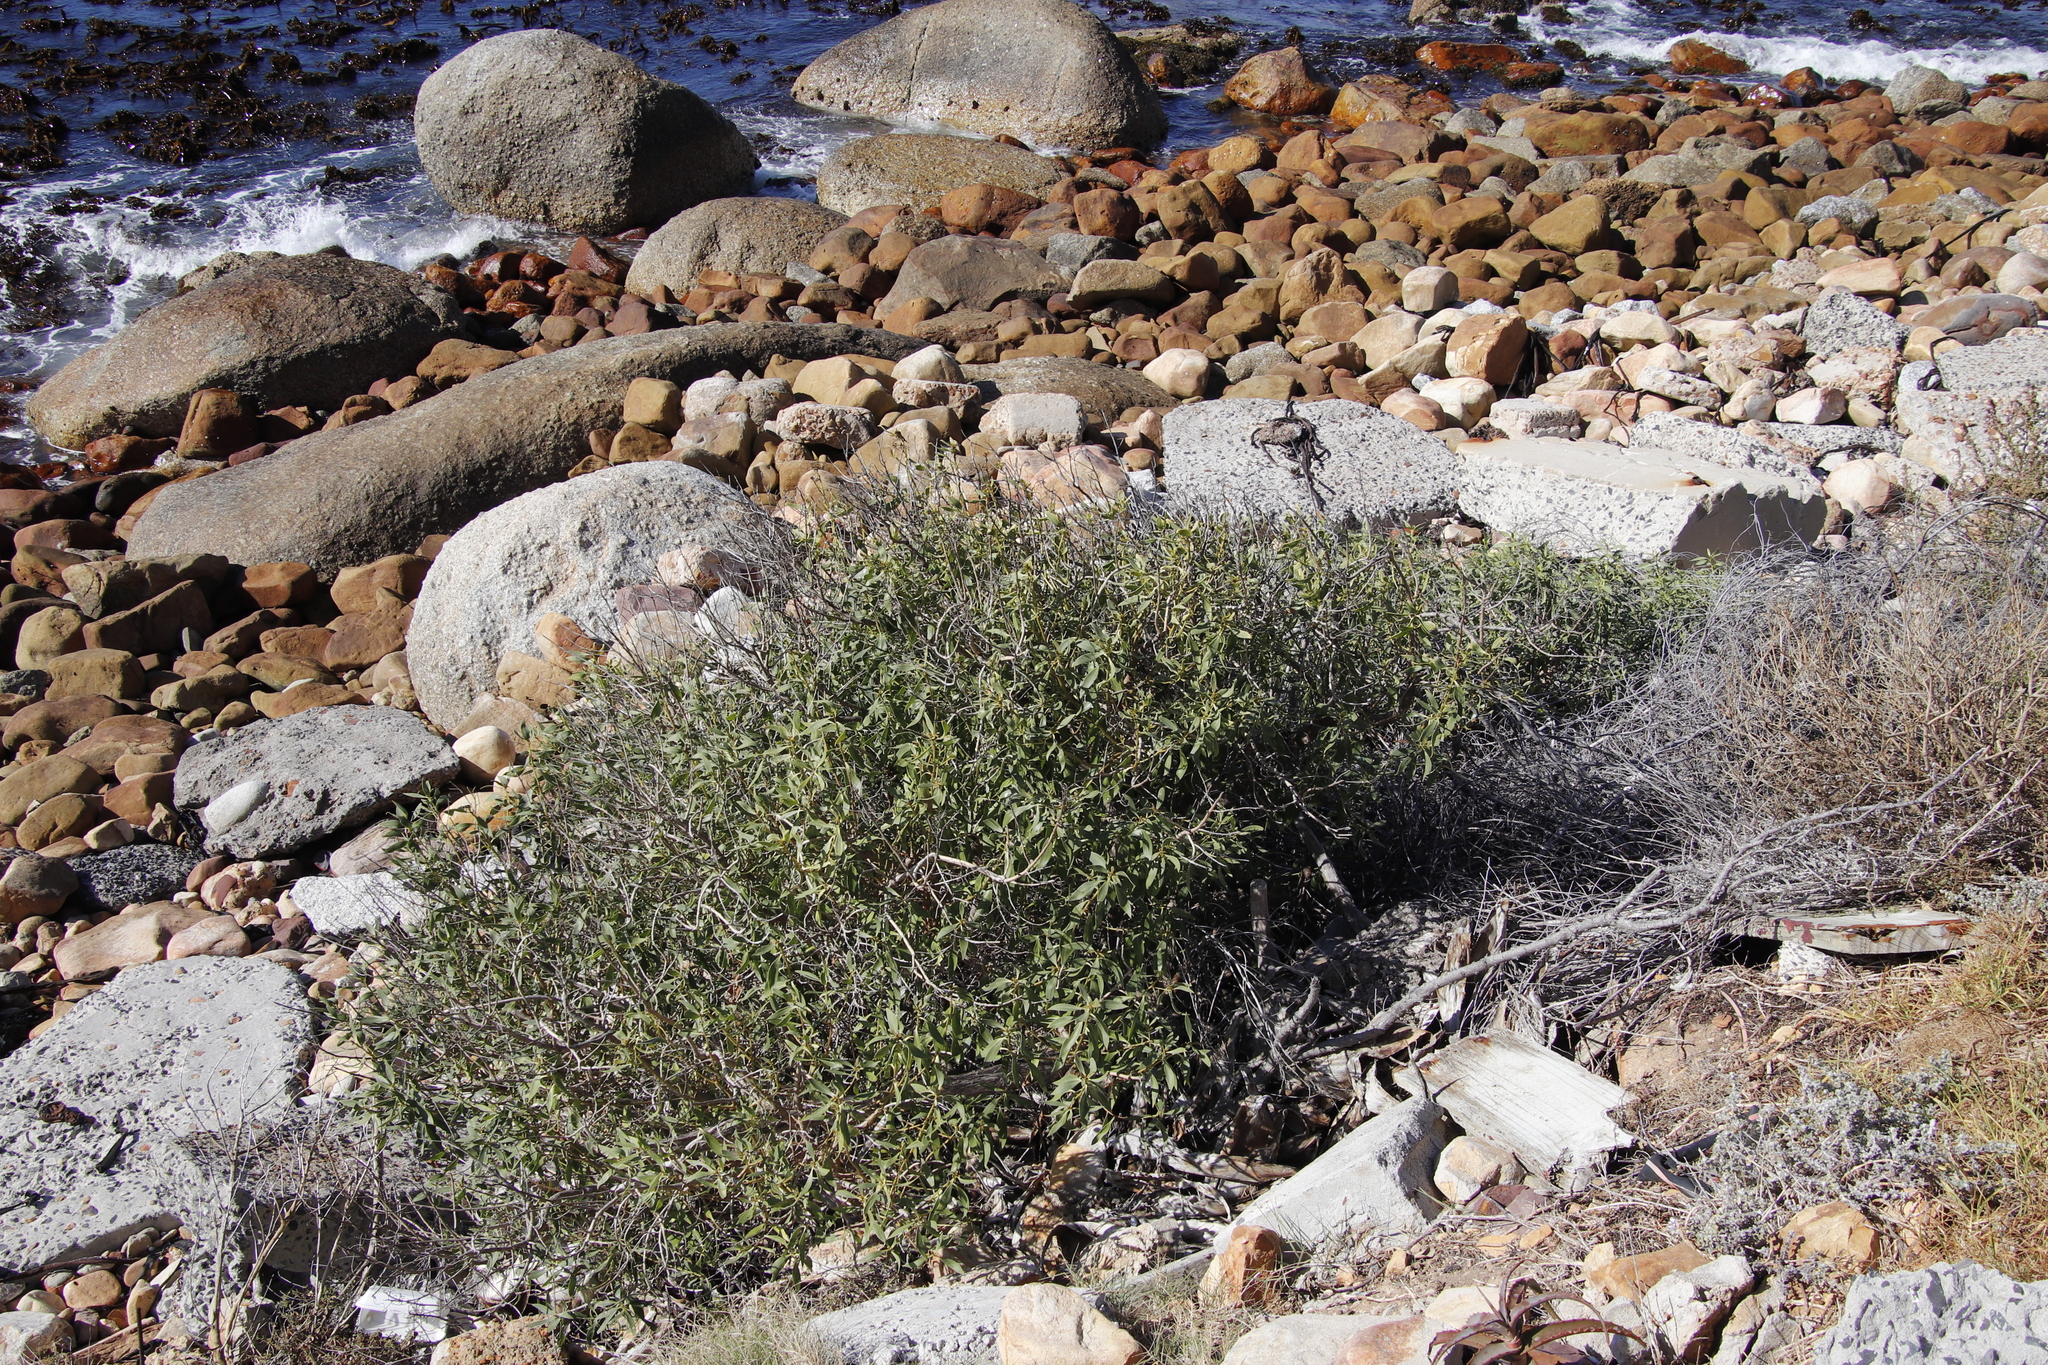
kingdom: Plantae
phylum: Tracheophyta
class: Magnoliopsida
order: Lamiales
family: Scrophulariaceae
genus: Myoporum
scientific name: Myoporum montanum
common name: Waterbush
